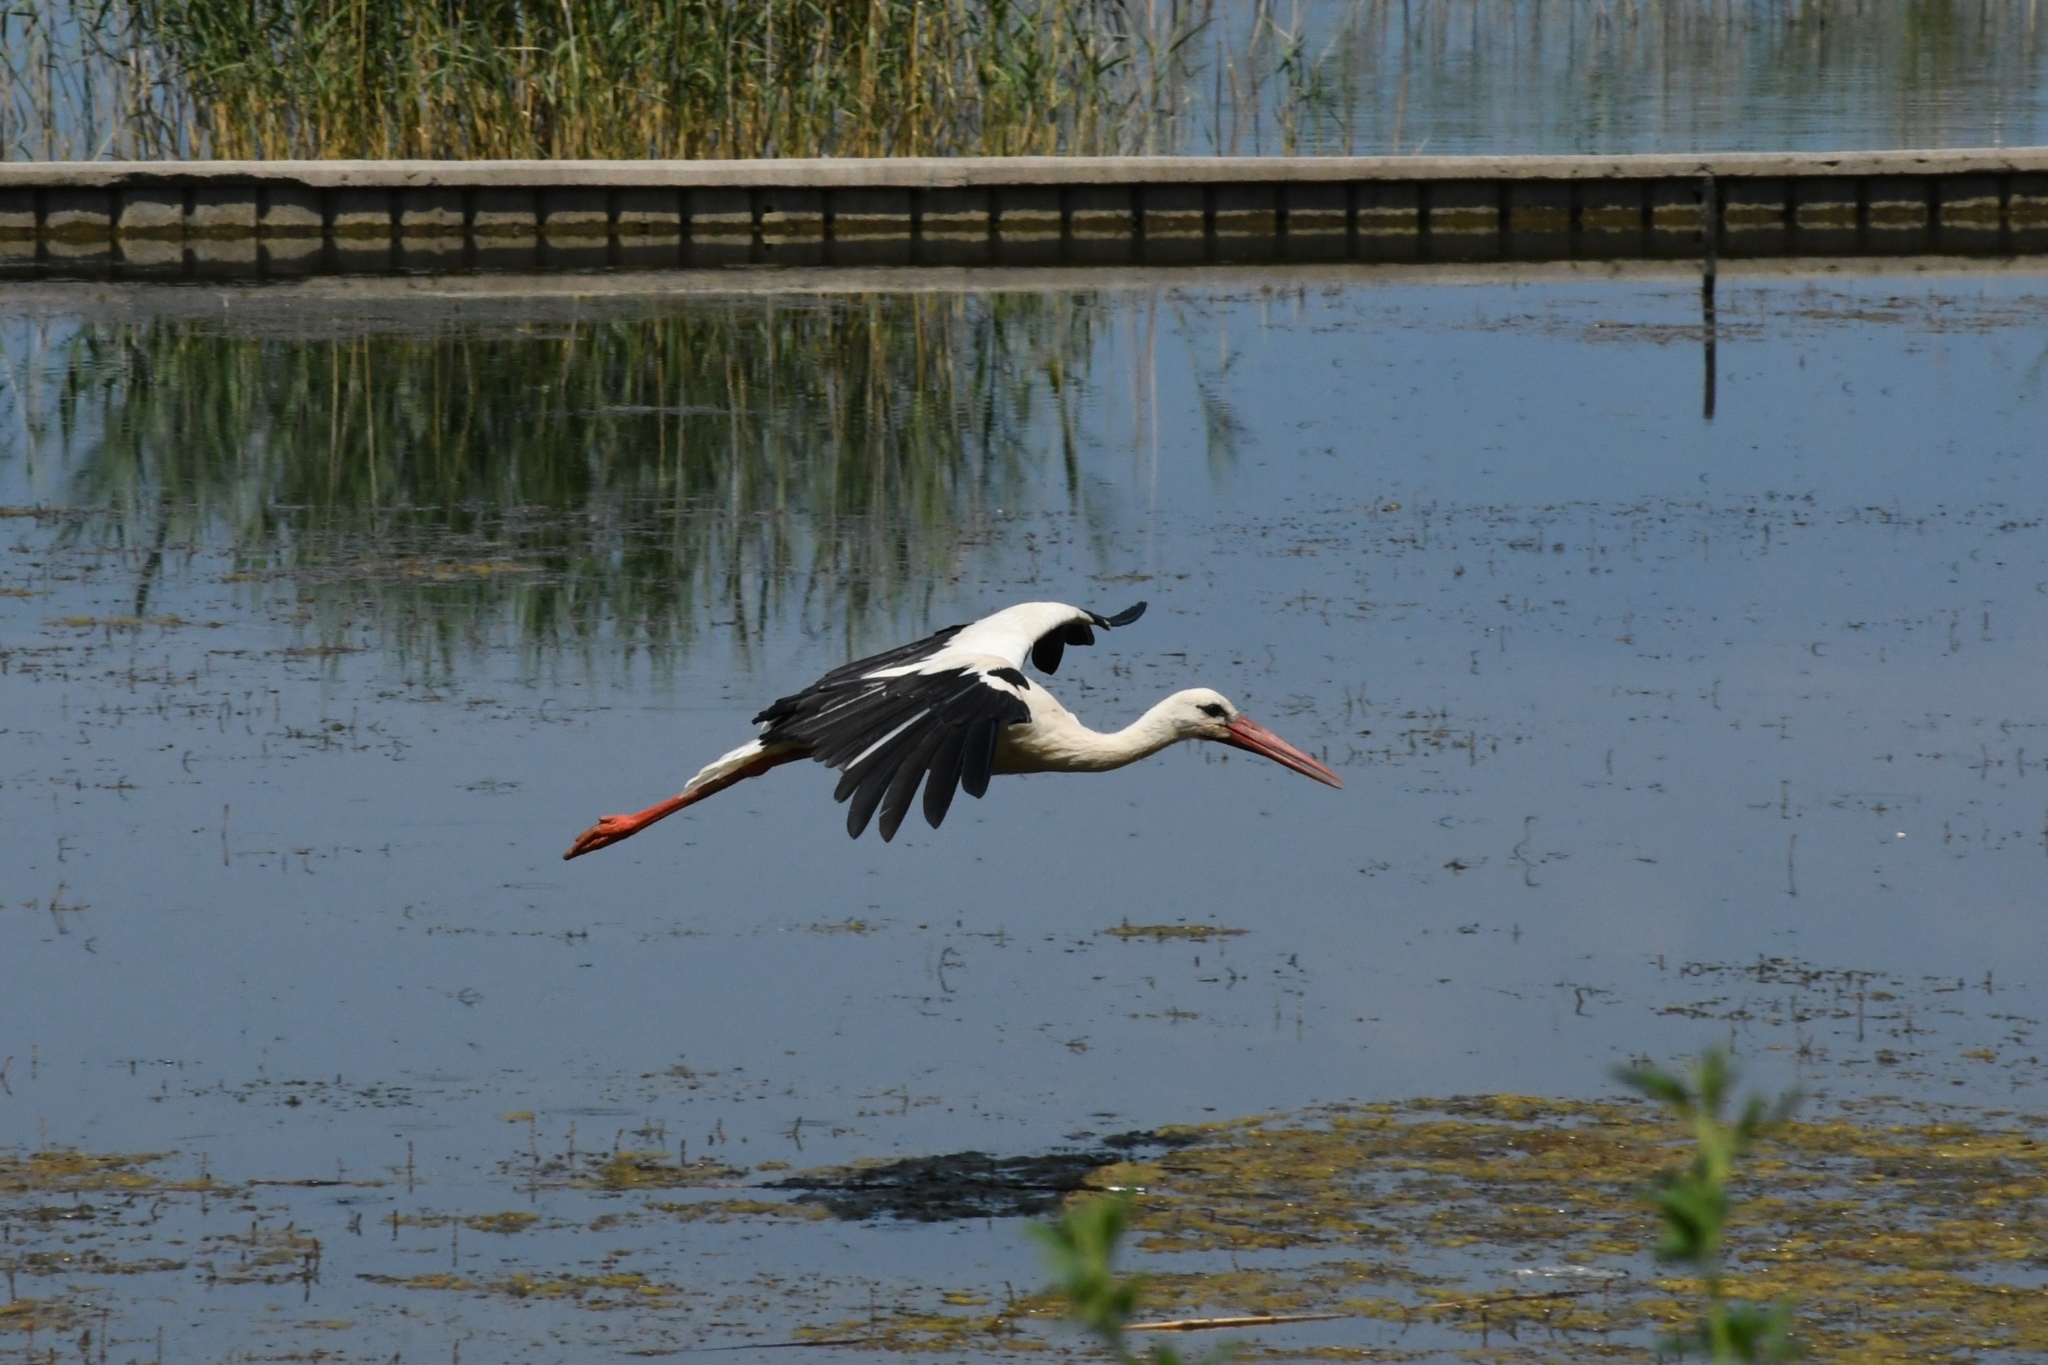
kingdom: Animalia
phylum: Chordata
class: Aves
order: Ciconiiformes
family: Ciconiidae
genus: Ciconia
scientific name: Ciconia ciconia
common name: White stork
